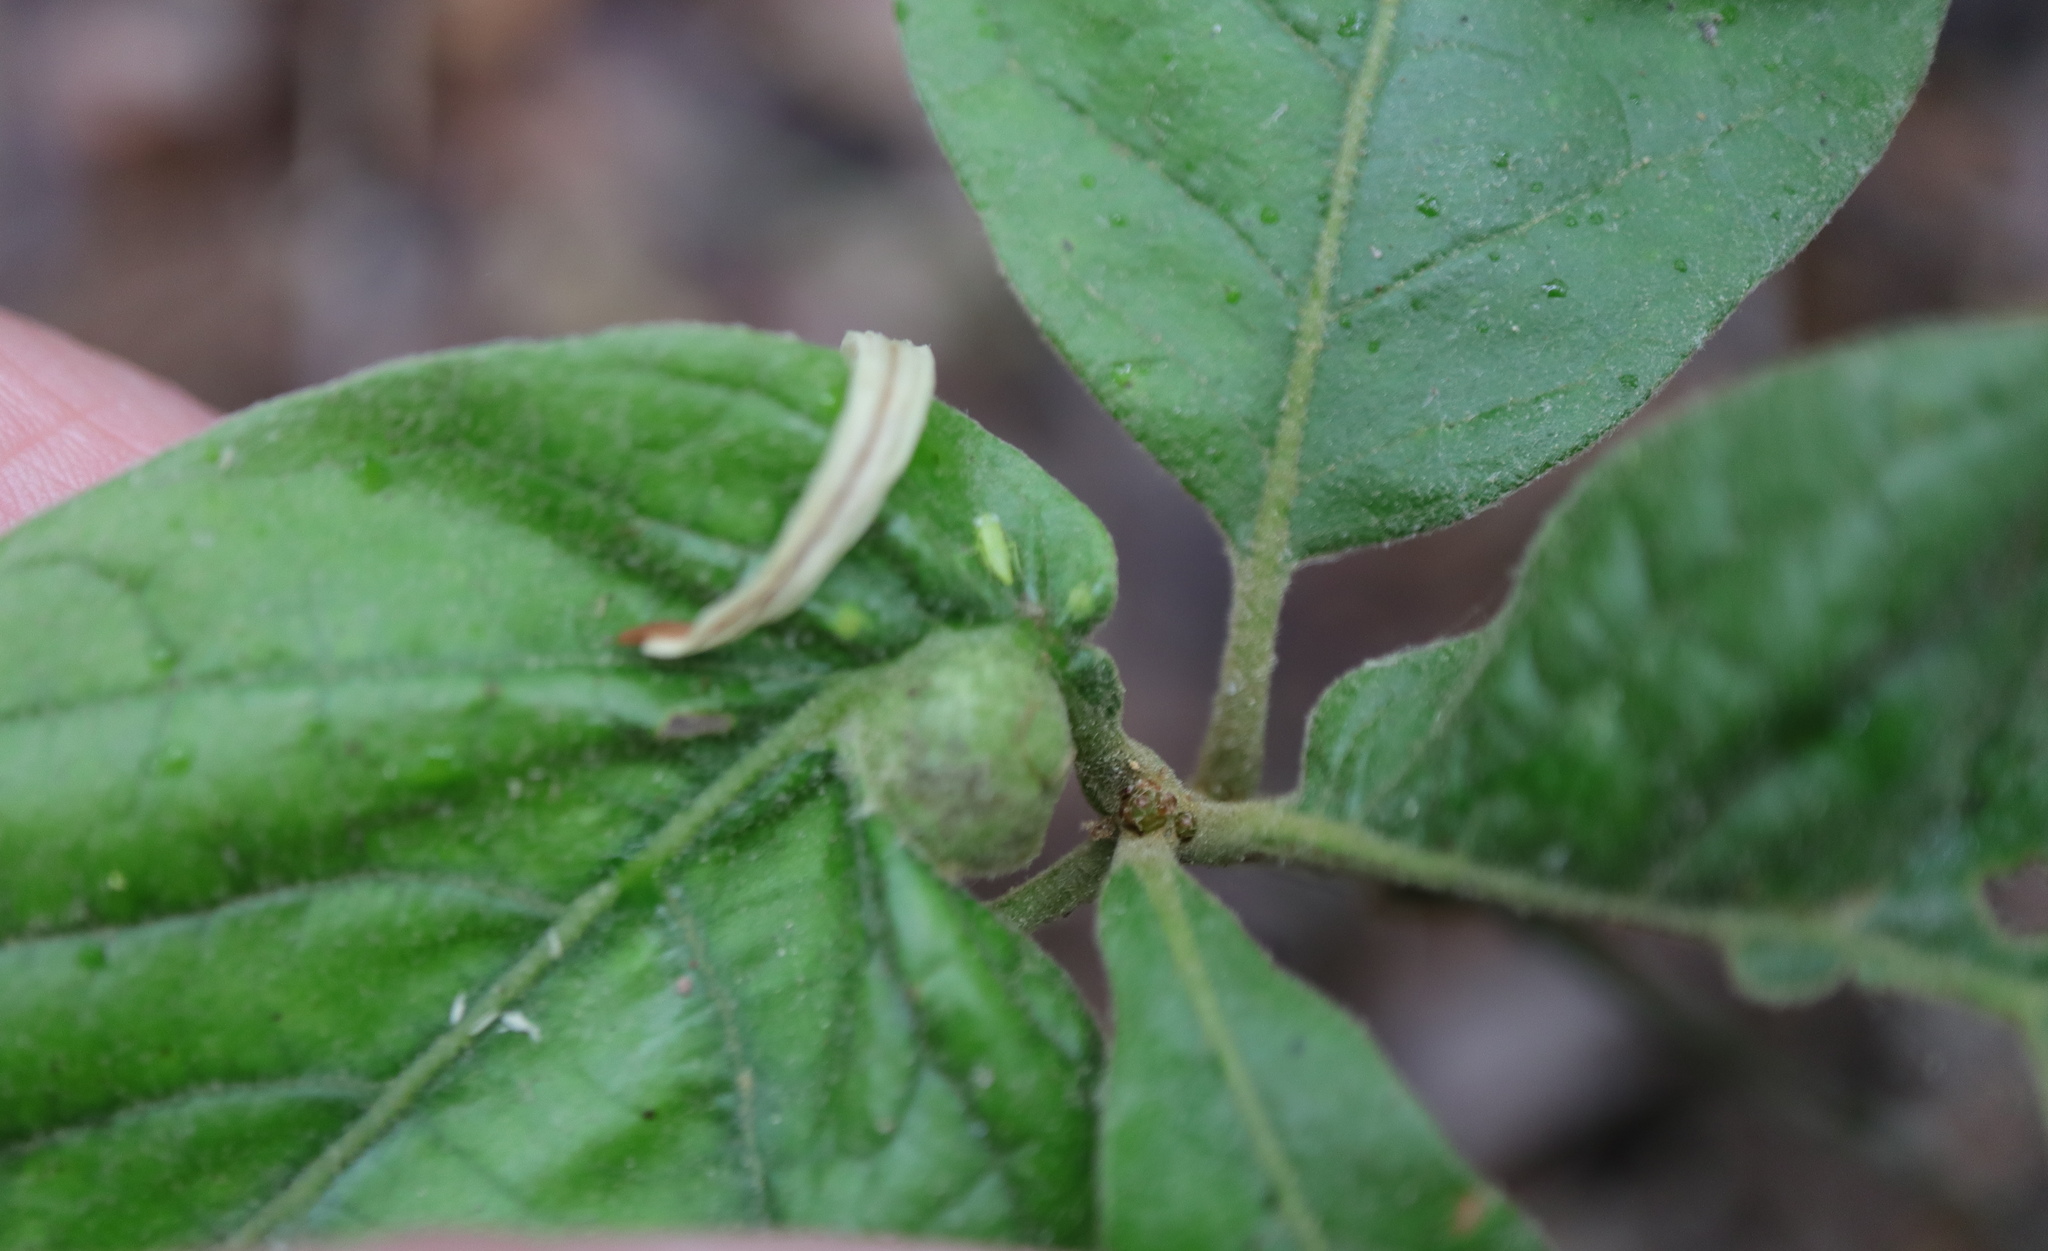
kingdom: Animalia
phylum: Arthropoda
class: Insecta
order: Hymenoptera
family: Cynipidae
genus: Dryocosmus
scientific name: Dryocosmus quercuspalustris
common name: Succulent oak gall wasp
